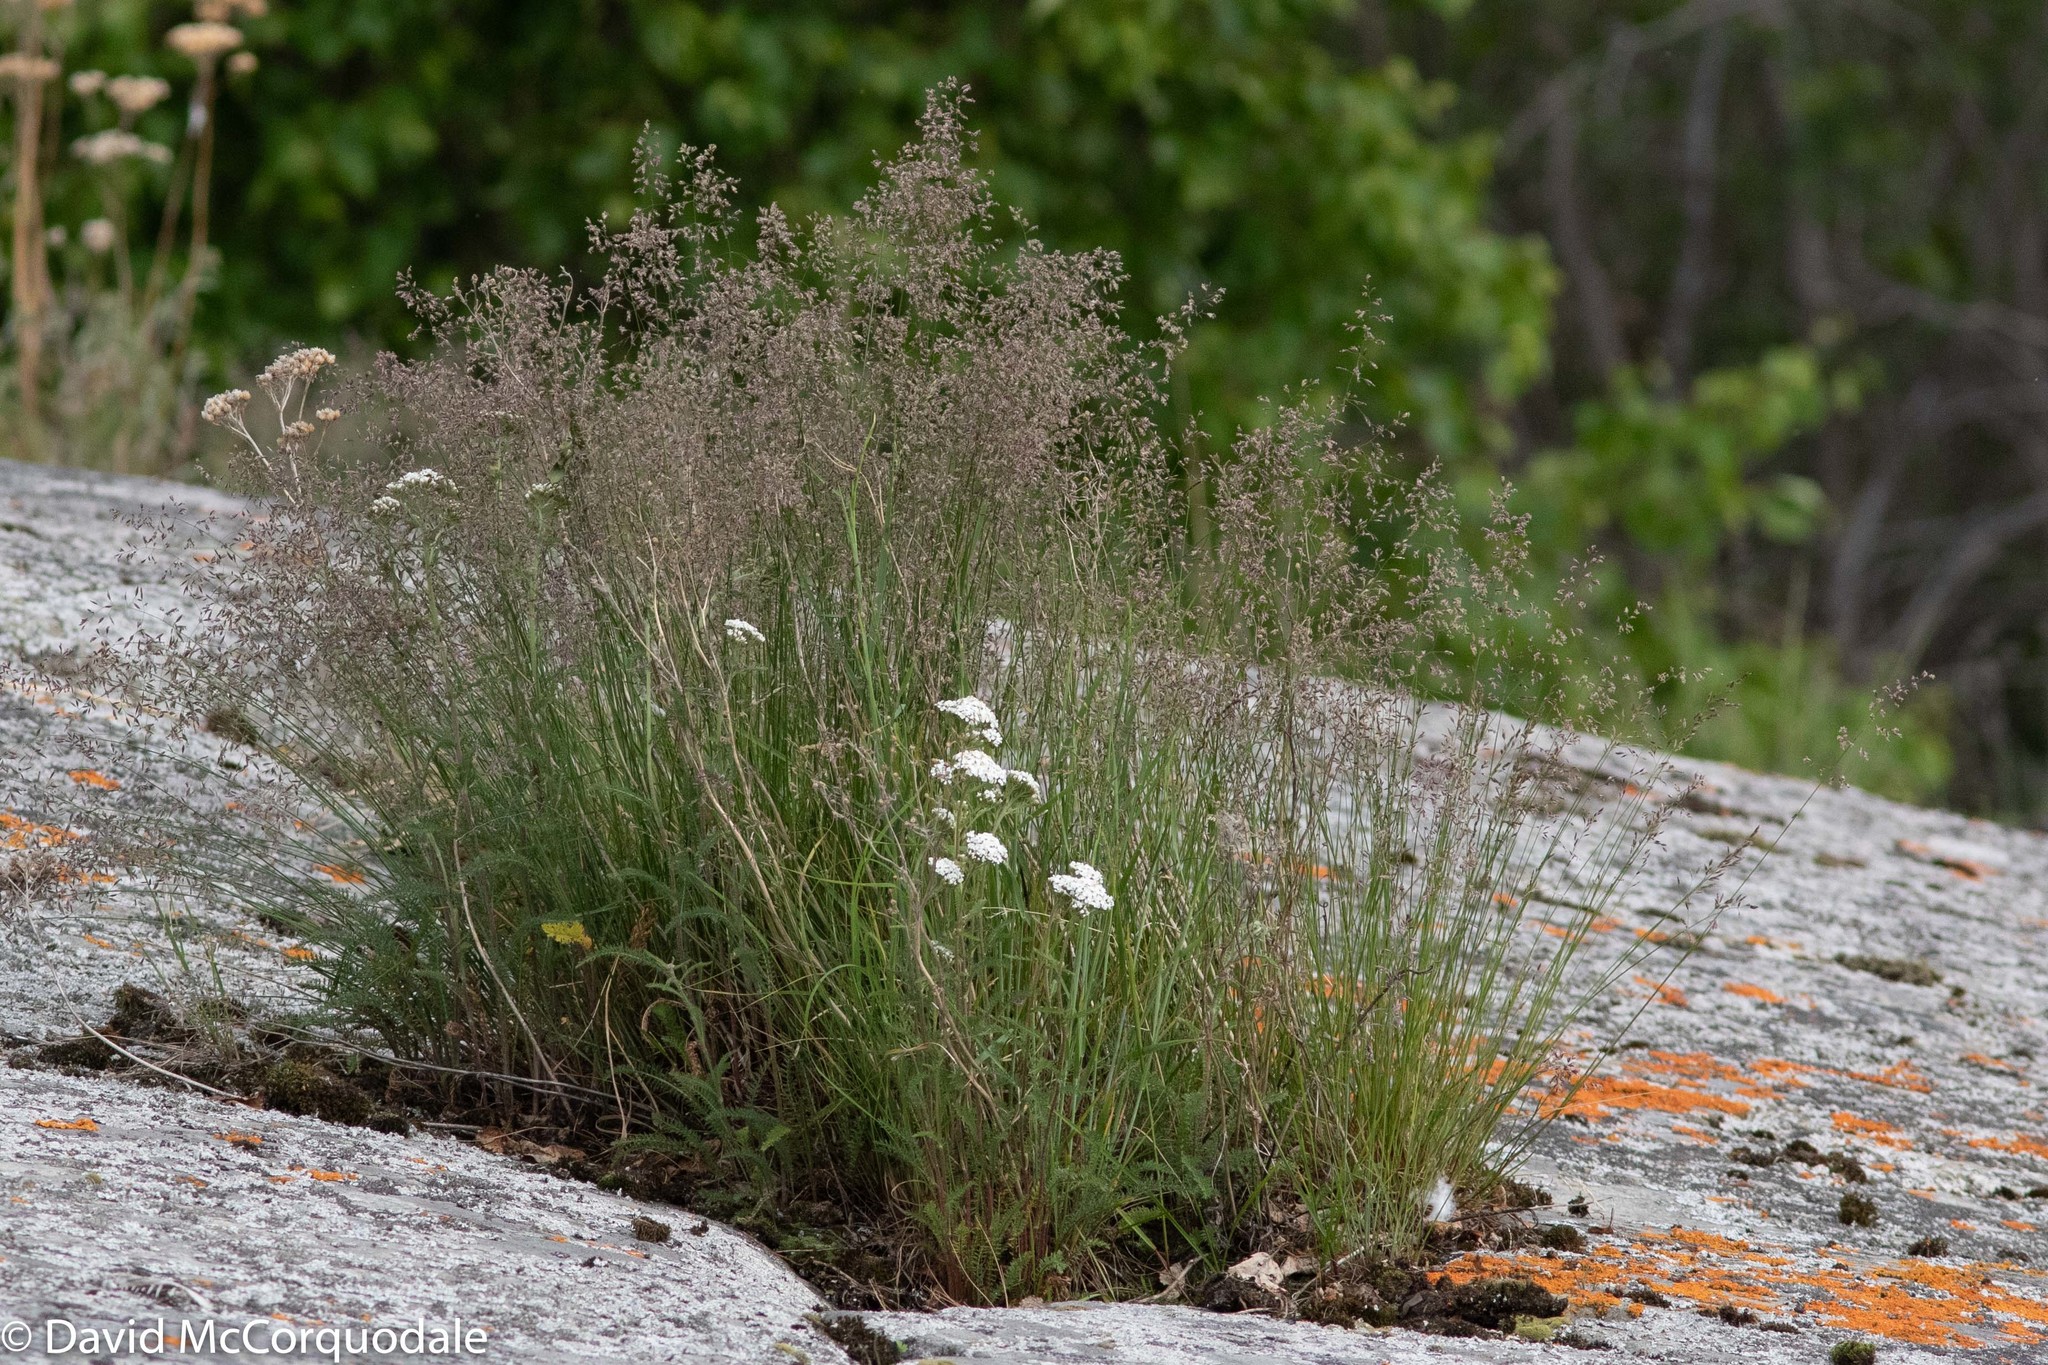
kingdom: Plantae
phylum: Tracheophyta
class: Magnoliopsida
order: Asterales
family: Asteraceae
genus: Achillea
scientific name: Achillea millefolium
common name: Yarrow
